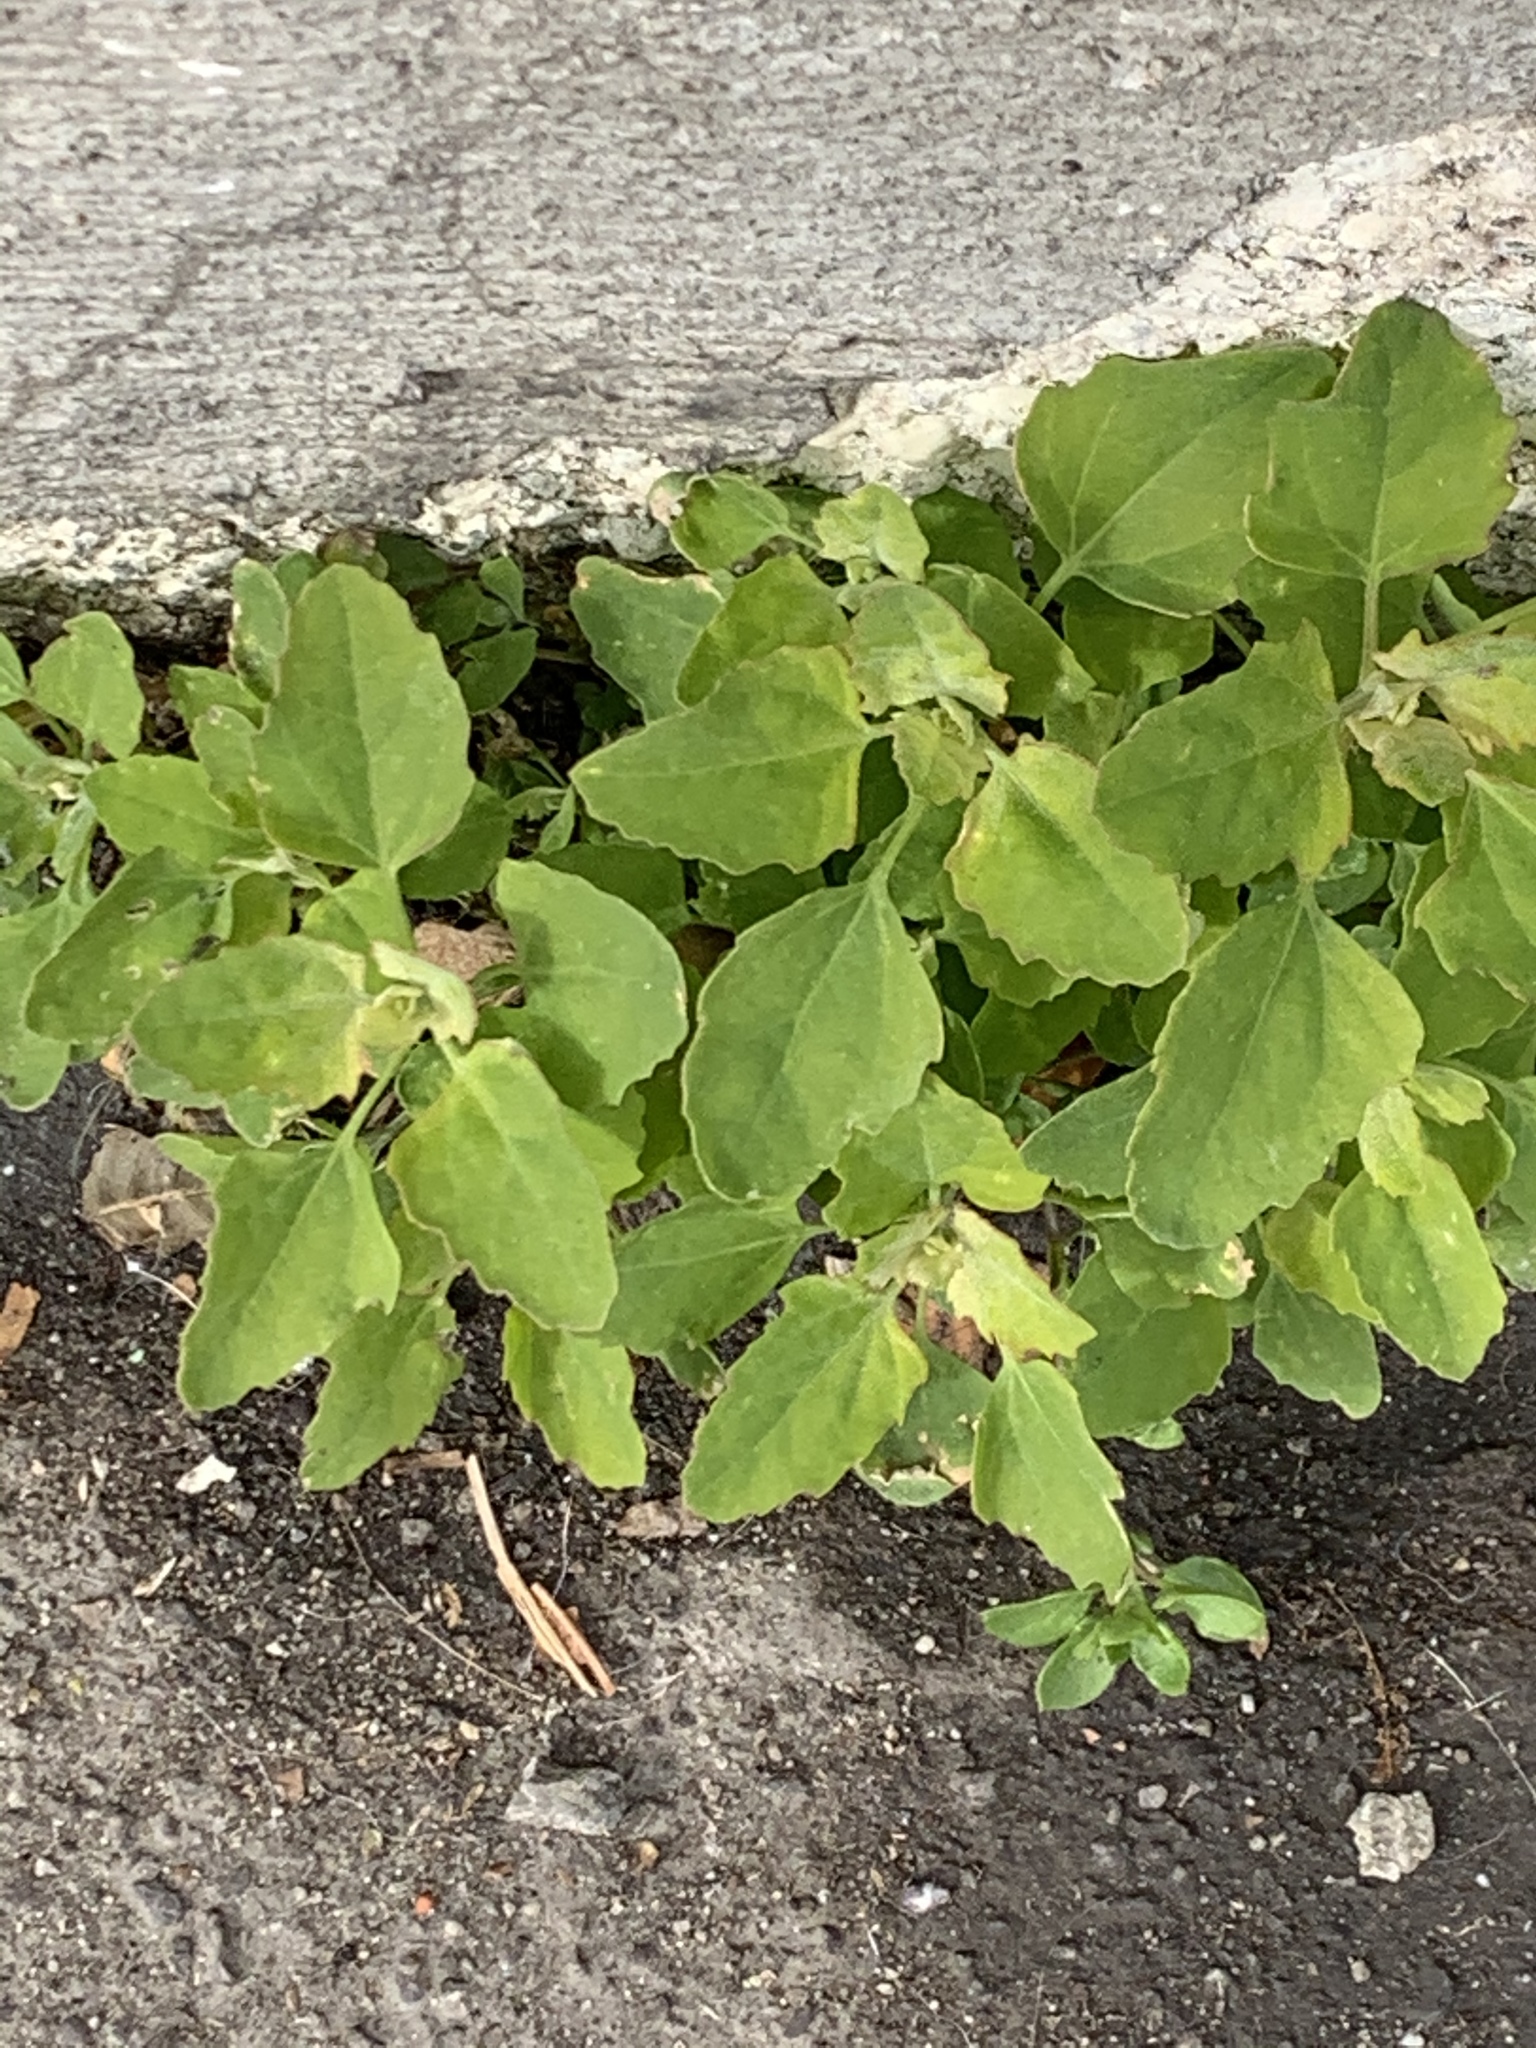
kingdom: Plantae
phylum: Tracheophyta
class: Magnoliopsida
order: Caryophyllales
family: Amaranthaceae
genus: Chenopodium
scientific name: Chenopodium album
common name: Fat-hen
